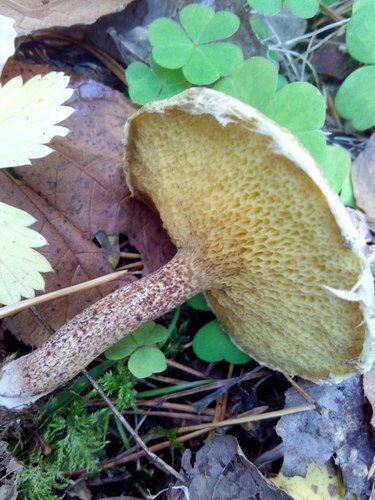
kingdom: Fungi
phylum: Basidiomycota
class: Agaricomycetes
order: Boletales
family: Suillaceae
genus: Suillus
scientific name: Suillus americanus
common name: Chicken fat mushroom
